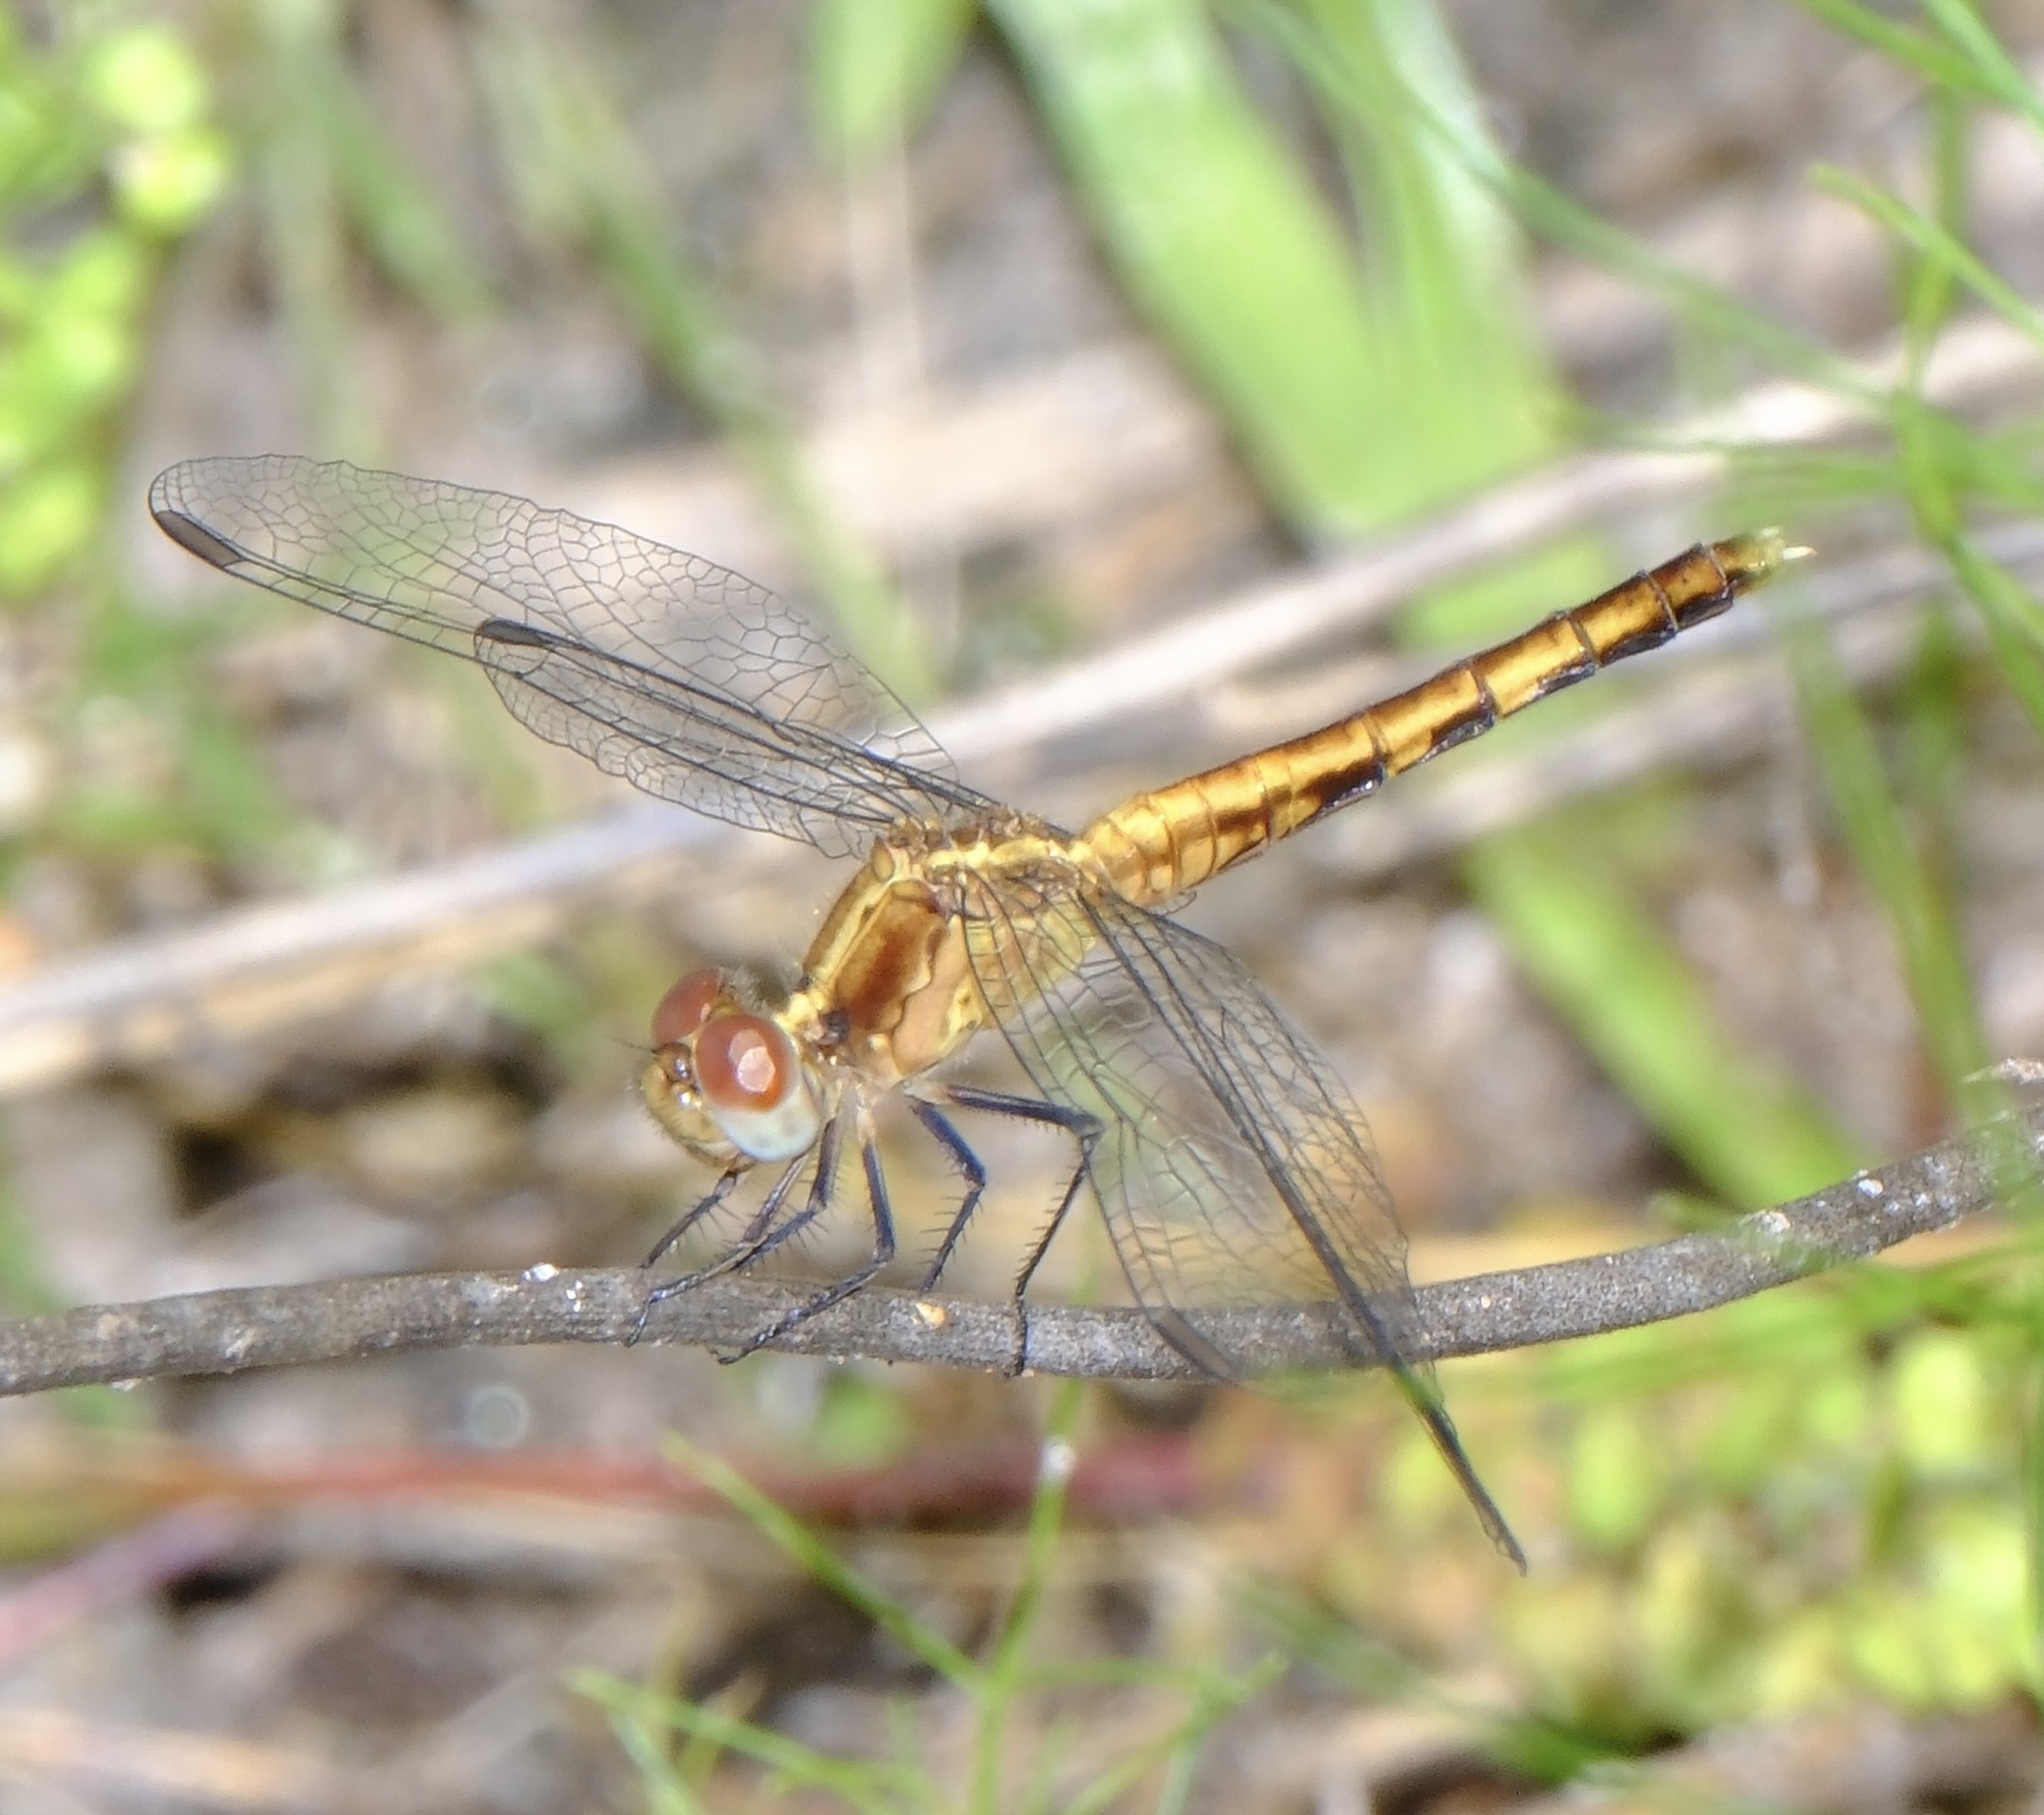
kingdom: Animalia
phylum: Arthropoda
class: Insecta
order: Odonata
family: Libellulidae
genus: Erythrodiplax
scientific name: Erythrodiplax minuscula
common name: Little blue dragonlet
